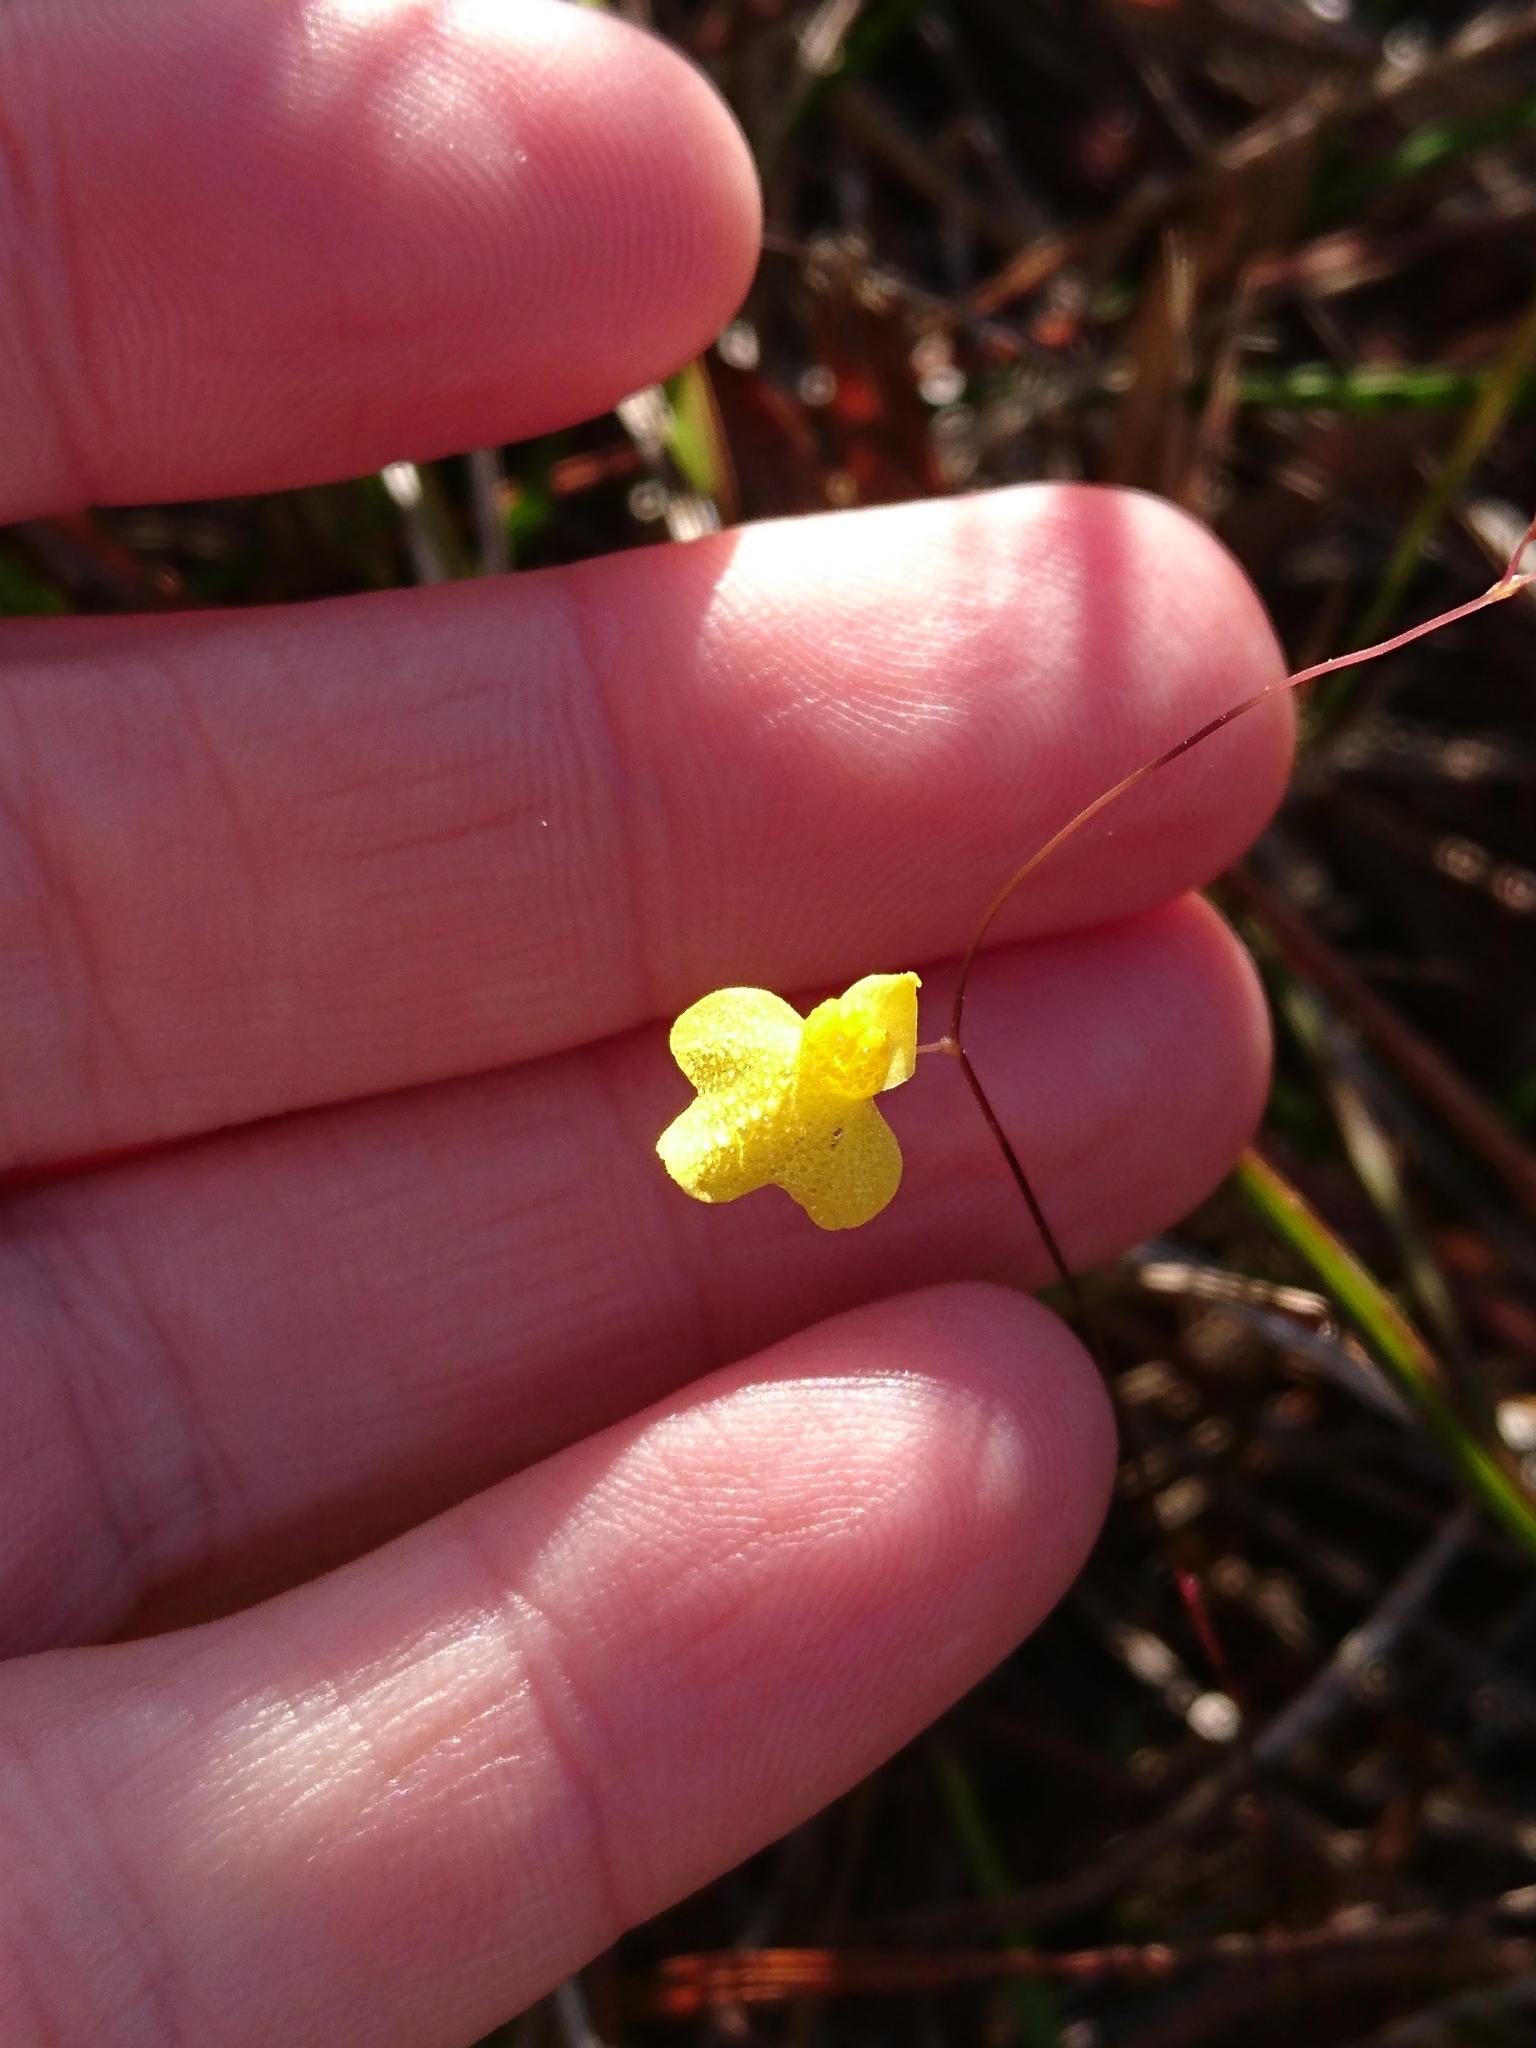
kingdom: Plantae
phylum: Tracheophyta
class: Magnoliopsida
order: Lamiales
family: Lentibulariaceae
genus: Utricularia
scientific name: Utricularia subulata
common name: Tiny bladderwort
